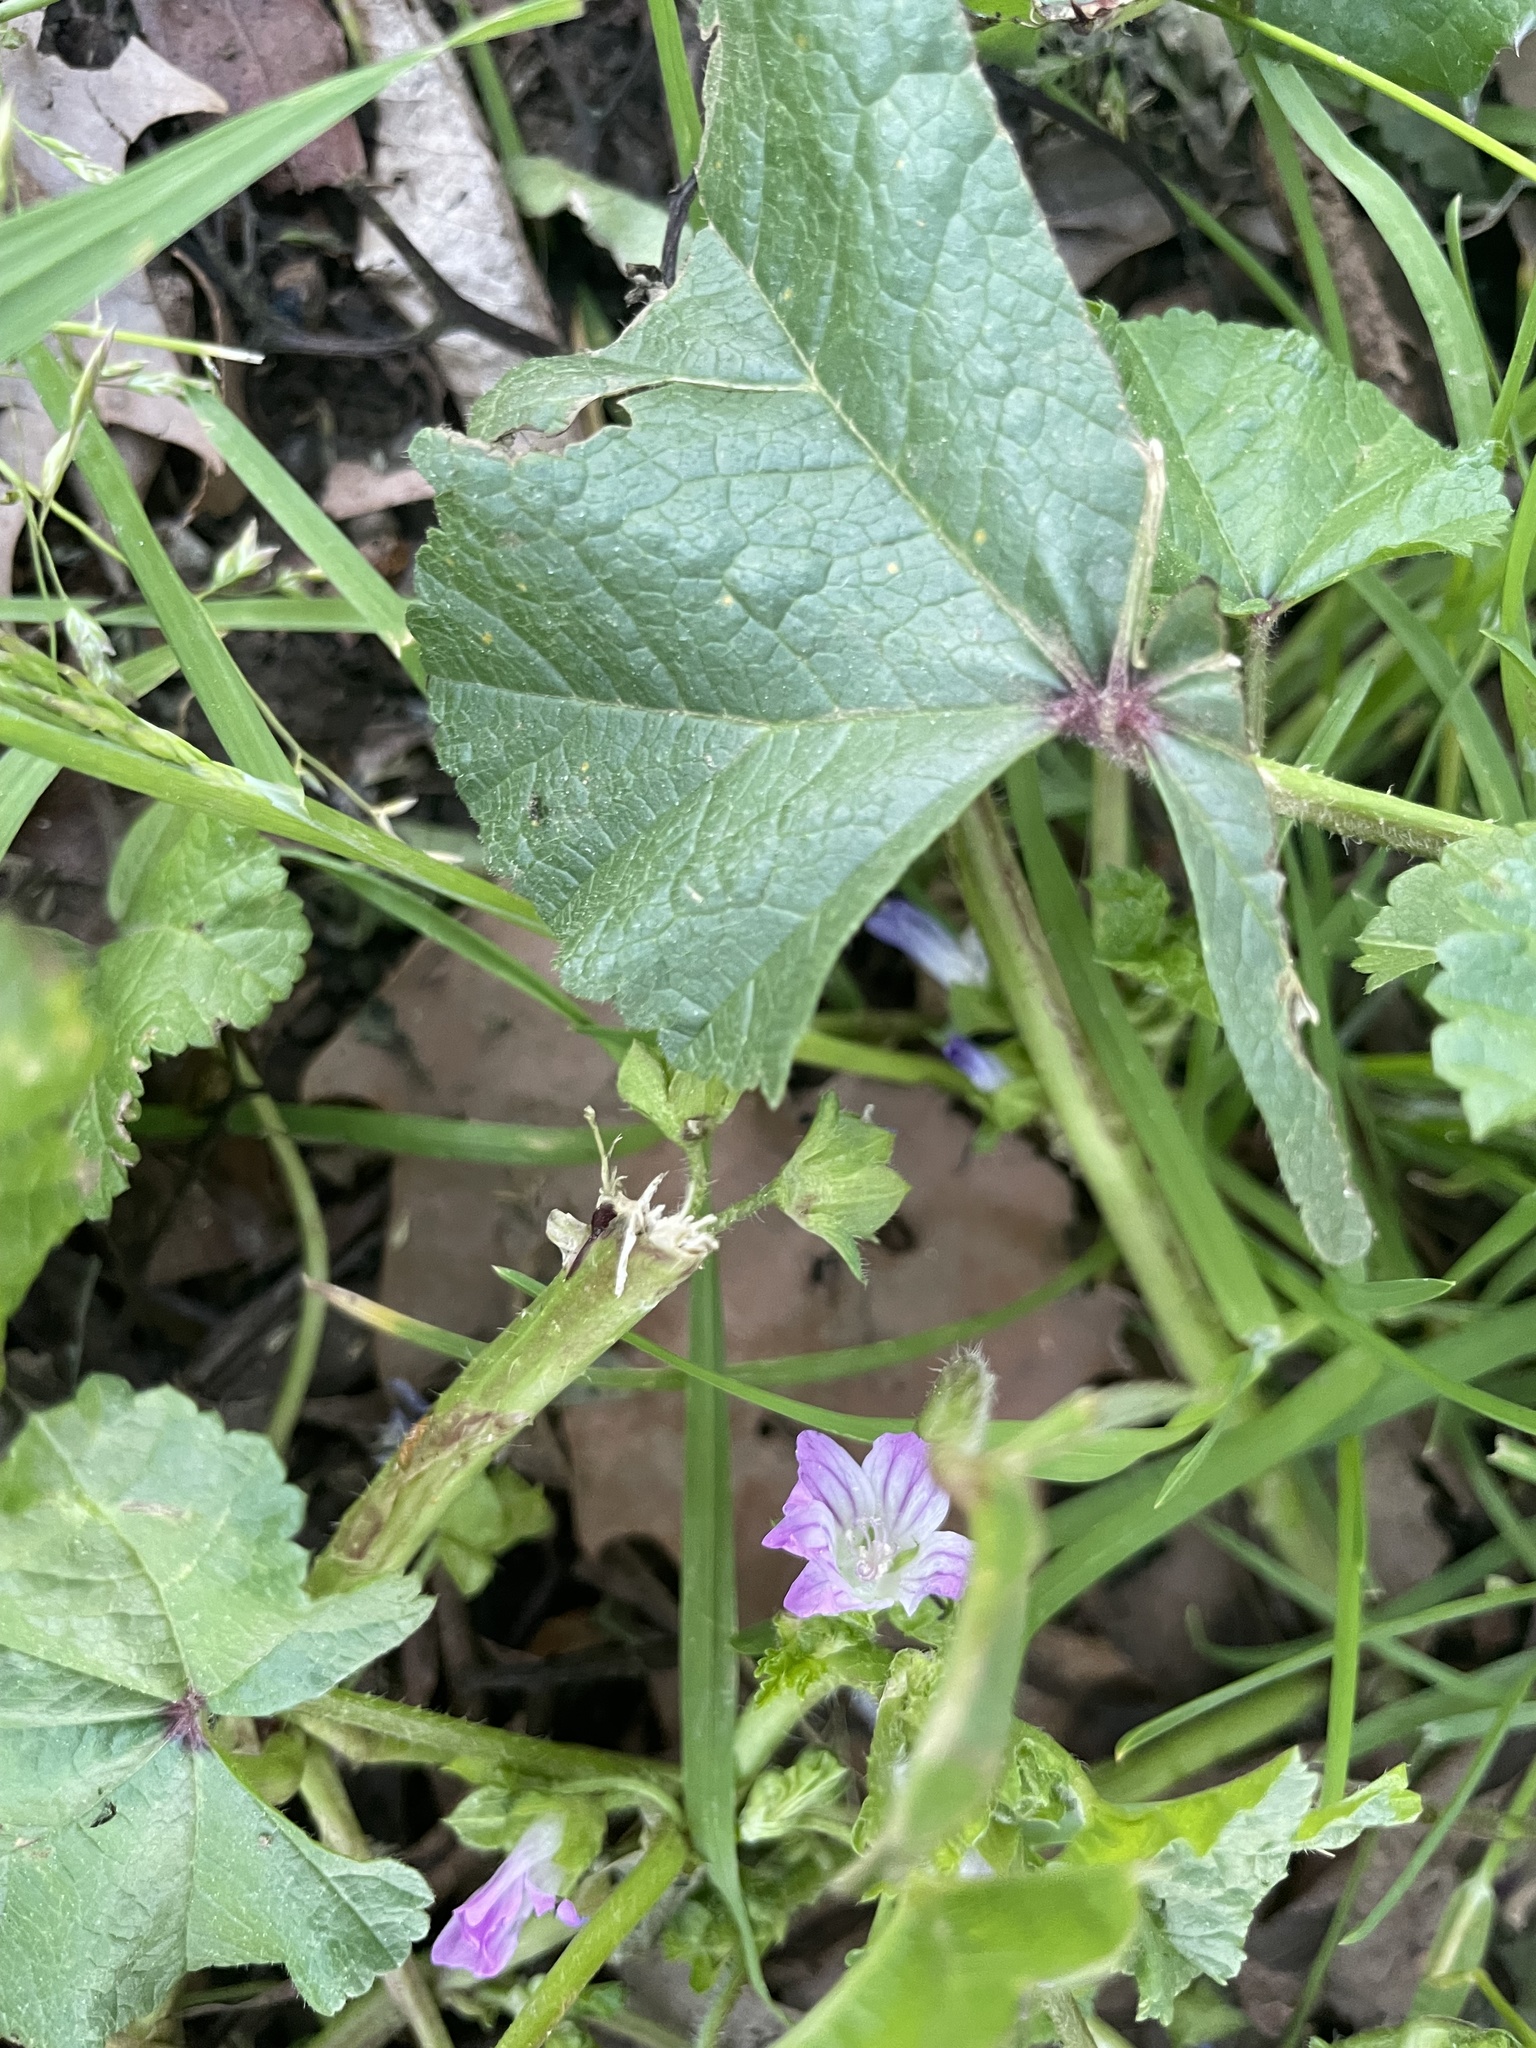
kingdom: Plantae
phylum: Tracheophyta
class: Magnoliopsida
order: Malvales
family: Malvaceae
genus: Malva
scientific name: Malva nicaeensis
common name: French mallow
